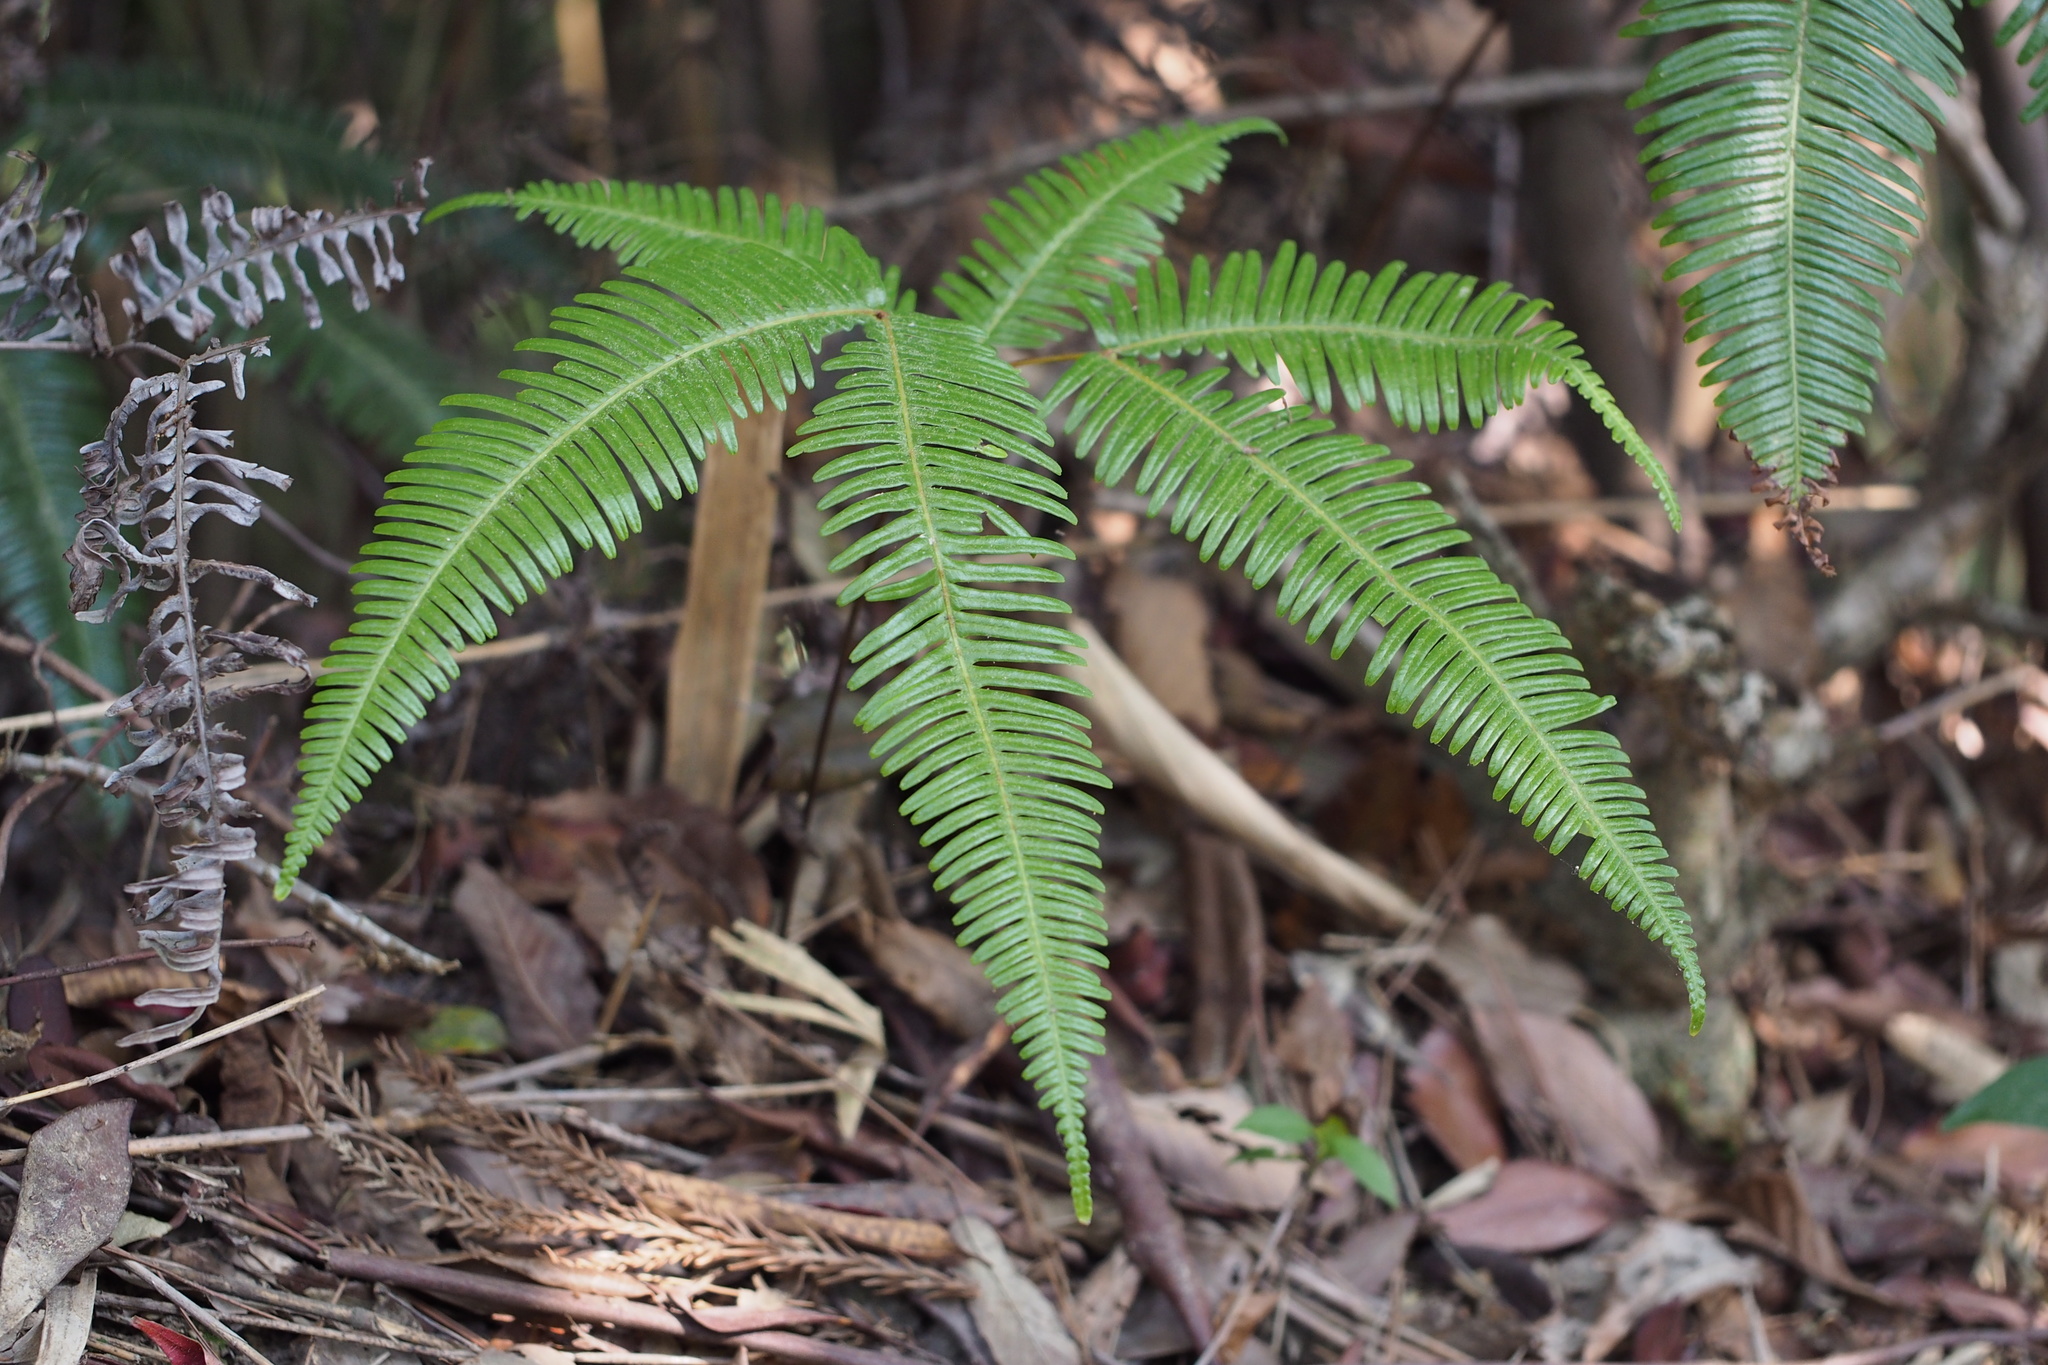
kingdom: Plantae
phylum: Tracheophyta
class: Polypodiopsida
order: Gleicheniales
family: Gleicheniaceae
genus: Dicranopteris
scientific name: Dicranopteris linearis
